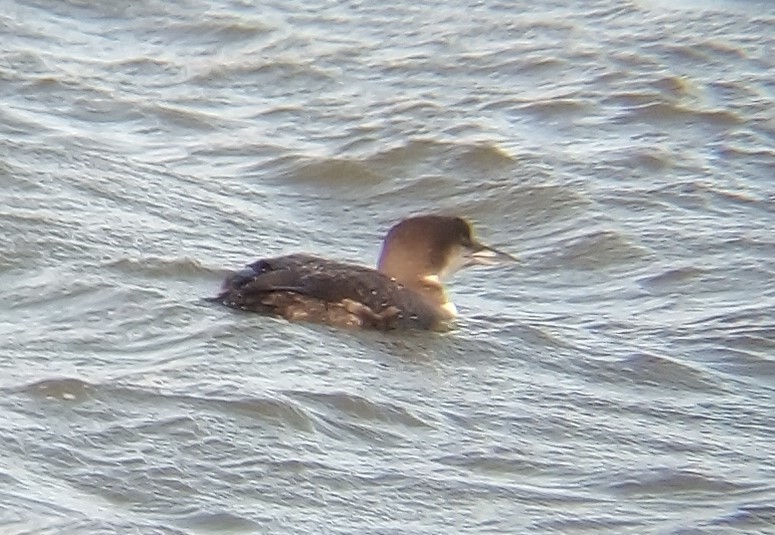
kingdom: Animalia
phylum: Chordata
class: Aves
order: Gaviiformes
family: Gaviidae
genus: Gavia
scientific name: Gavia immer
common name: Common loon
